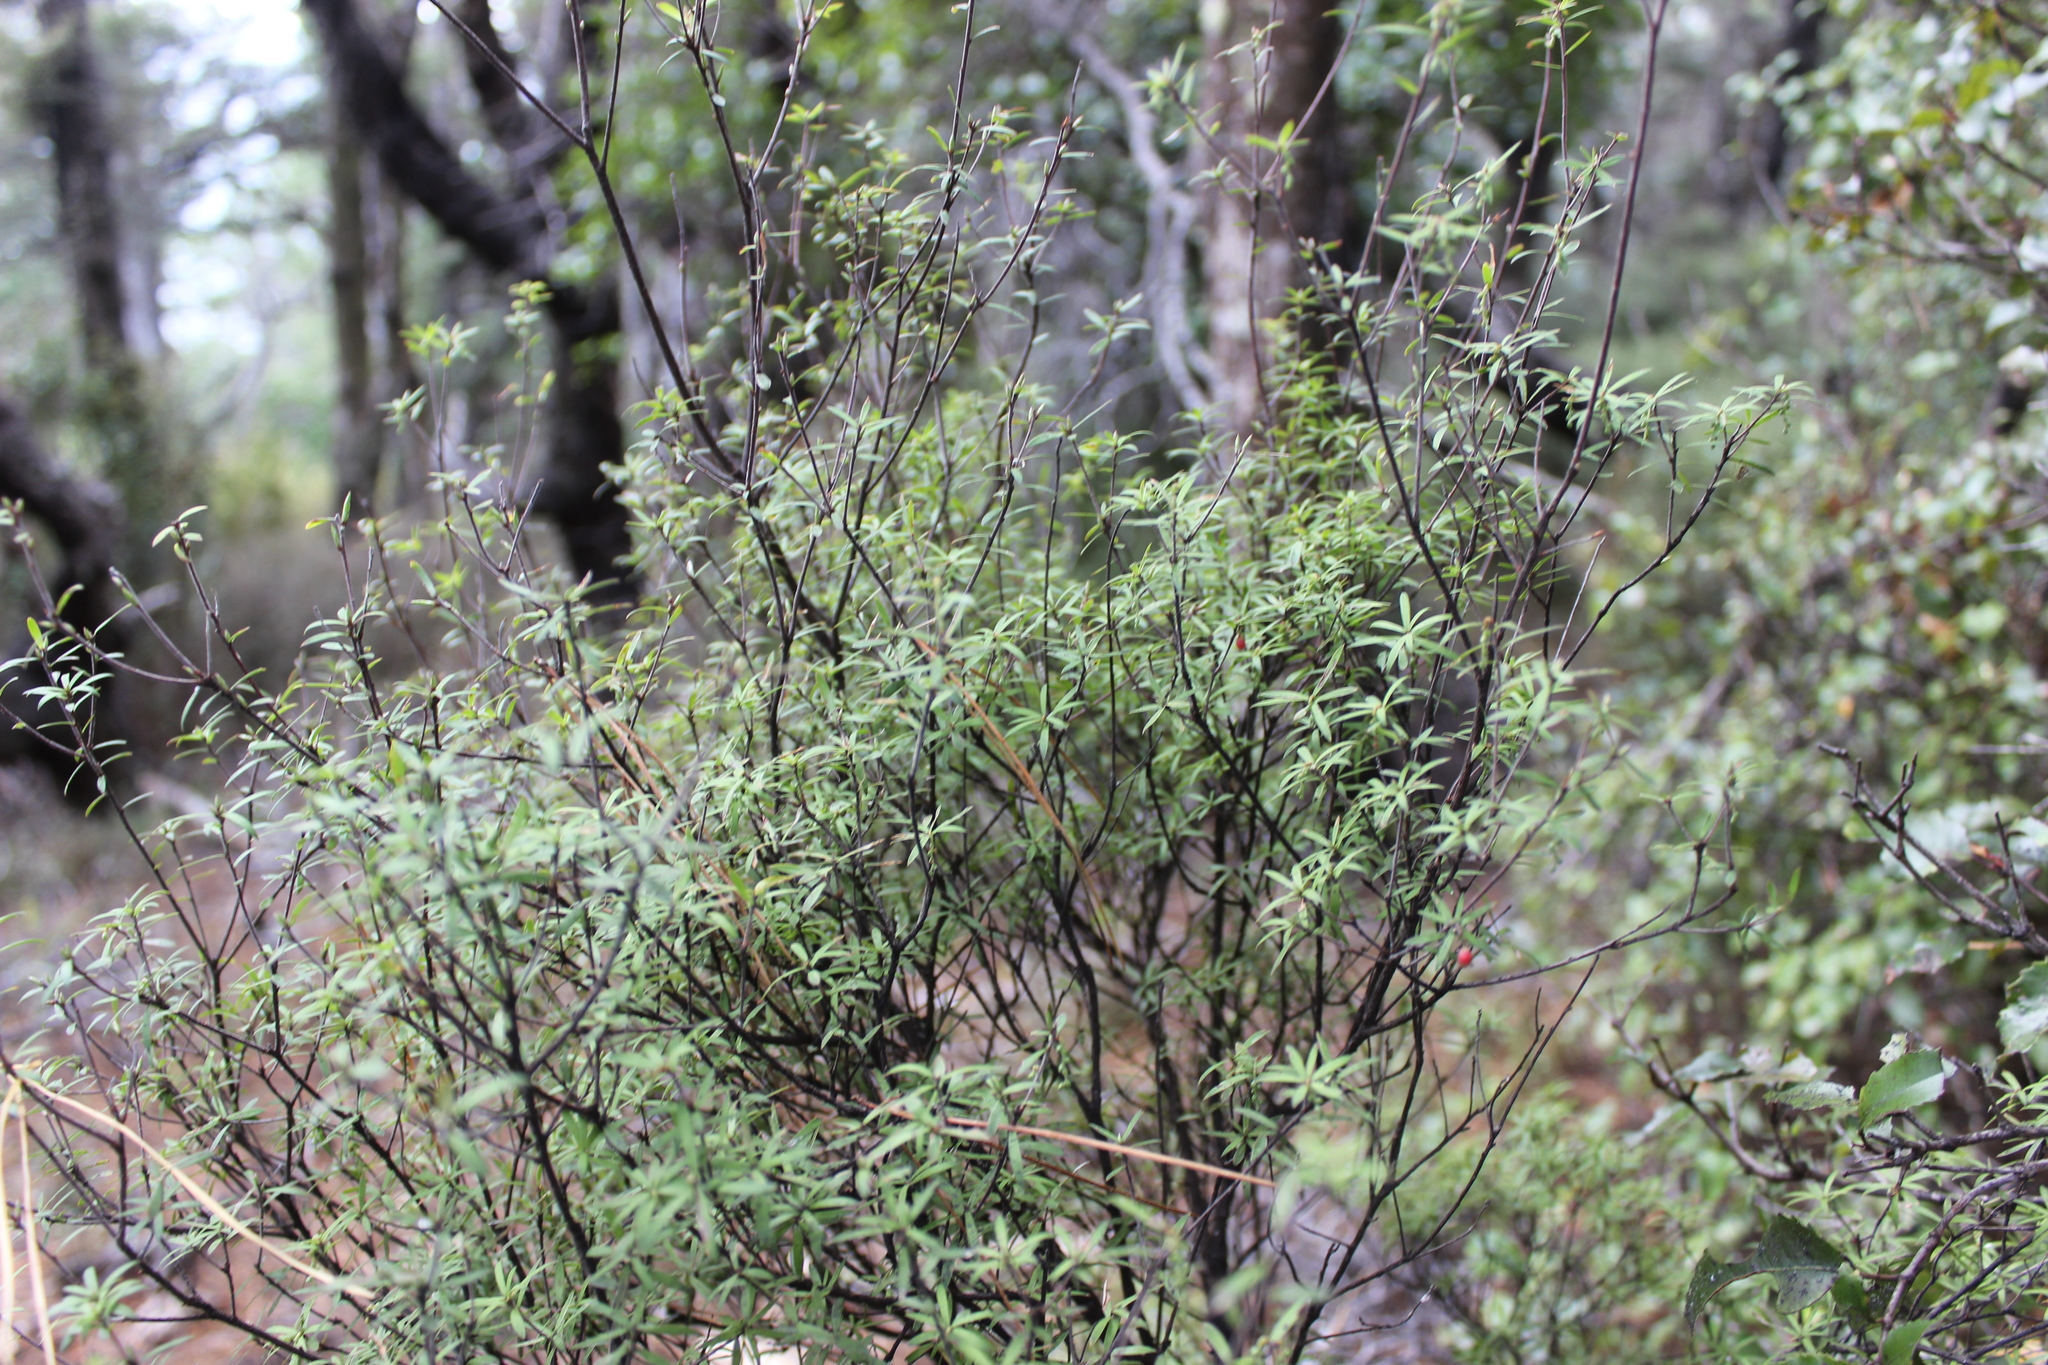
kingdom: Plantae
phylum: Tracheophyta
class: Magnoliopsida
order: Ericales
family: Ericaceae
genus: Leucopogon
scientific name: Leucopogon fasciculatus
